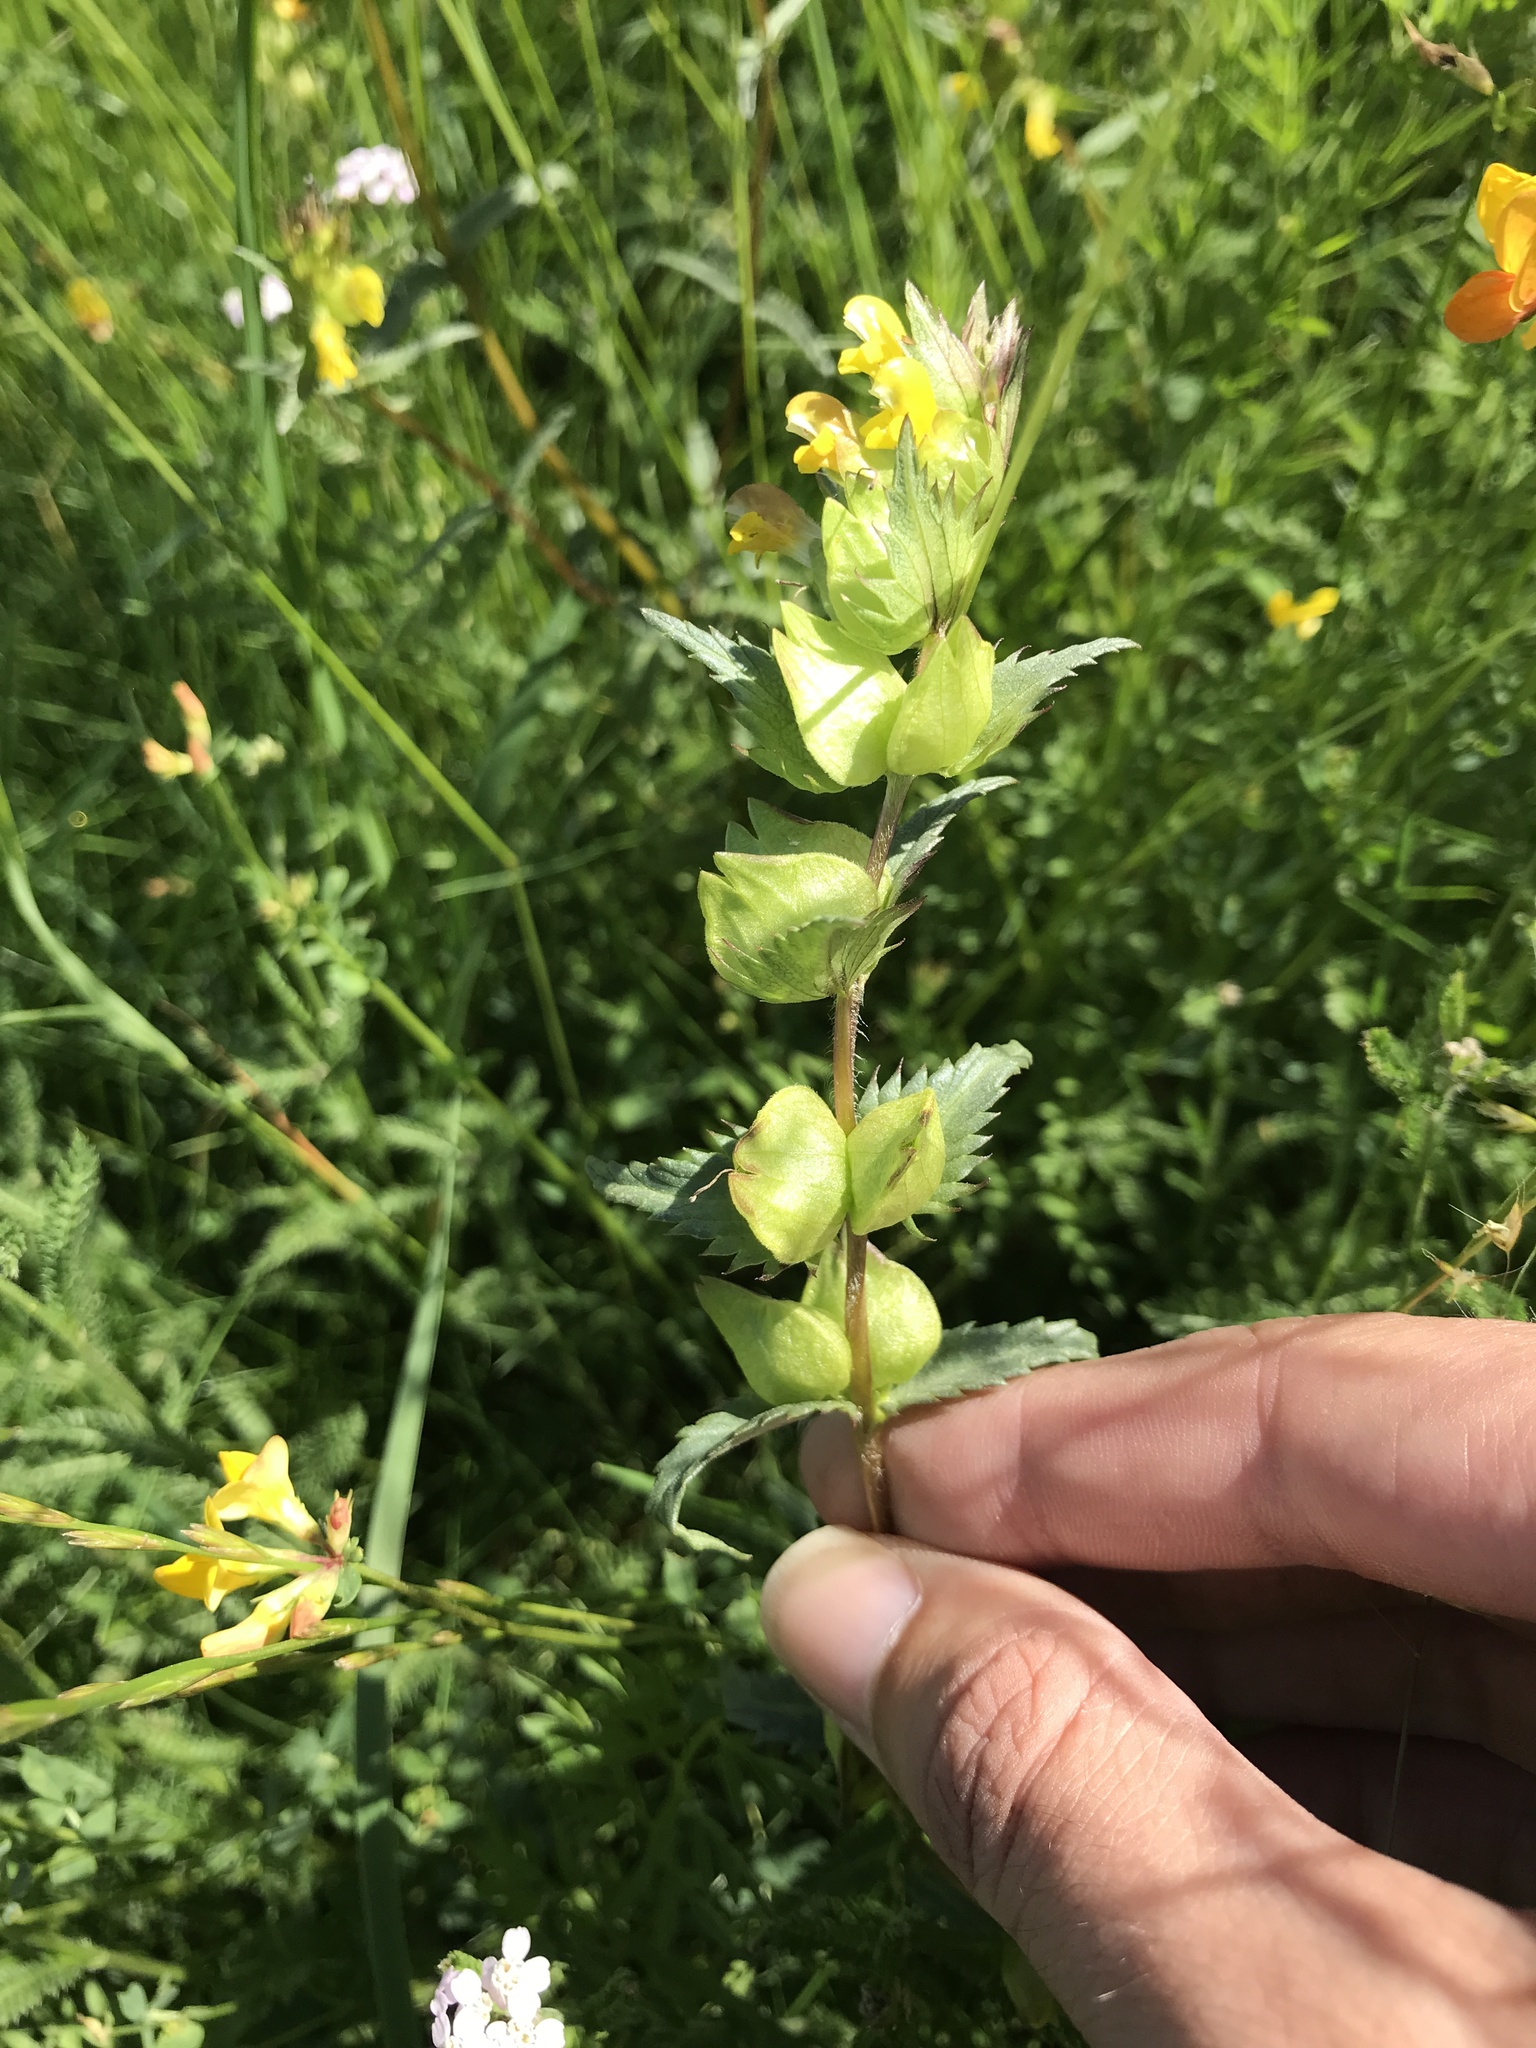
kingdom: Plantae
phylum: Tracheophyta
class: Magnoliopsida
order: Lamiales
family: Orobanchaceae
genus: Rhinanthus
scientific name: Rhinanthus minor
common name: Yellow-rattle
